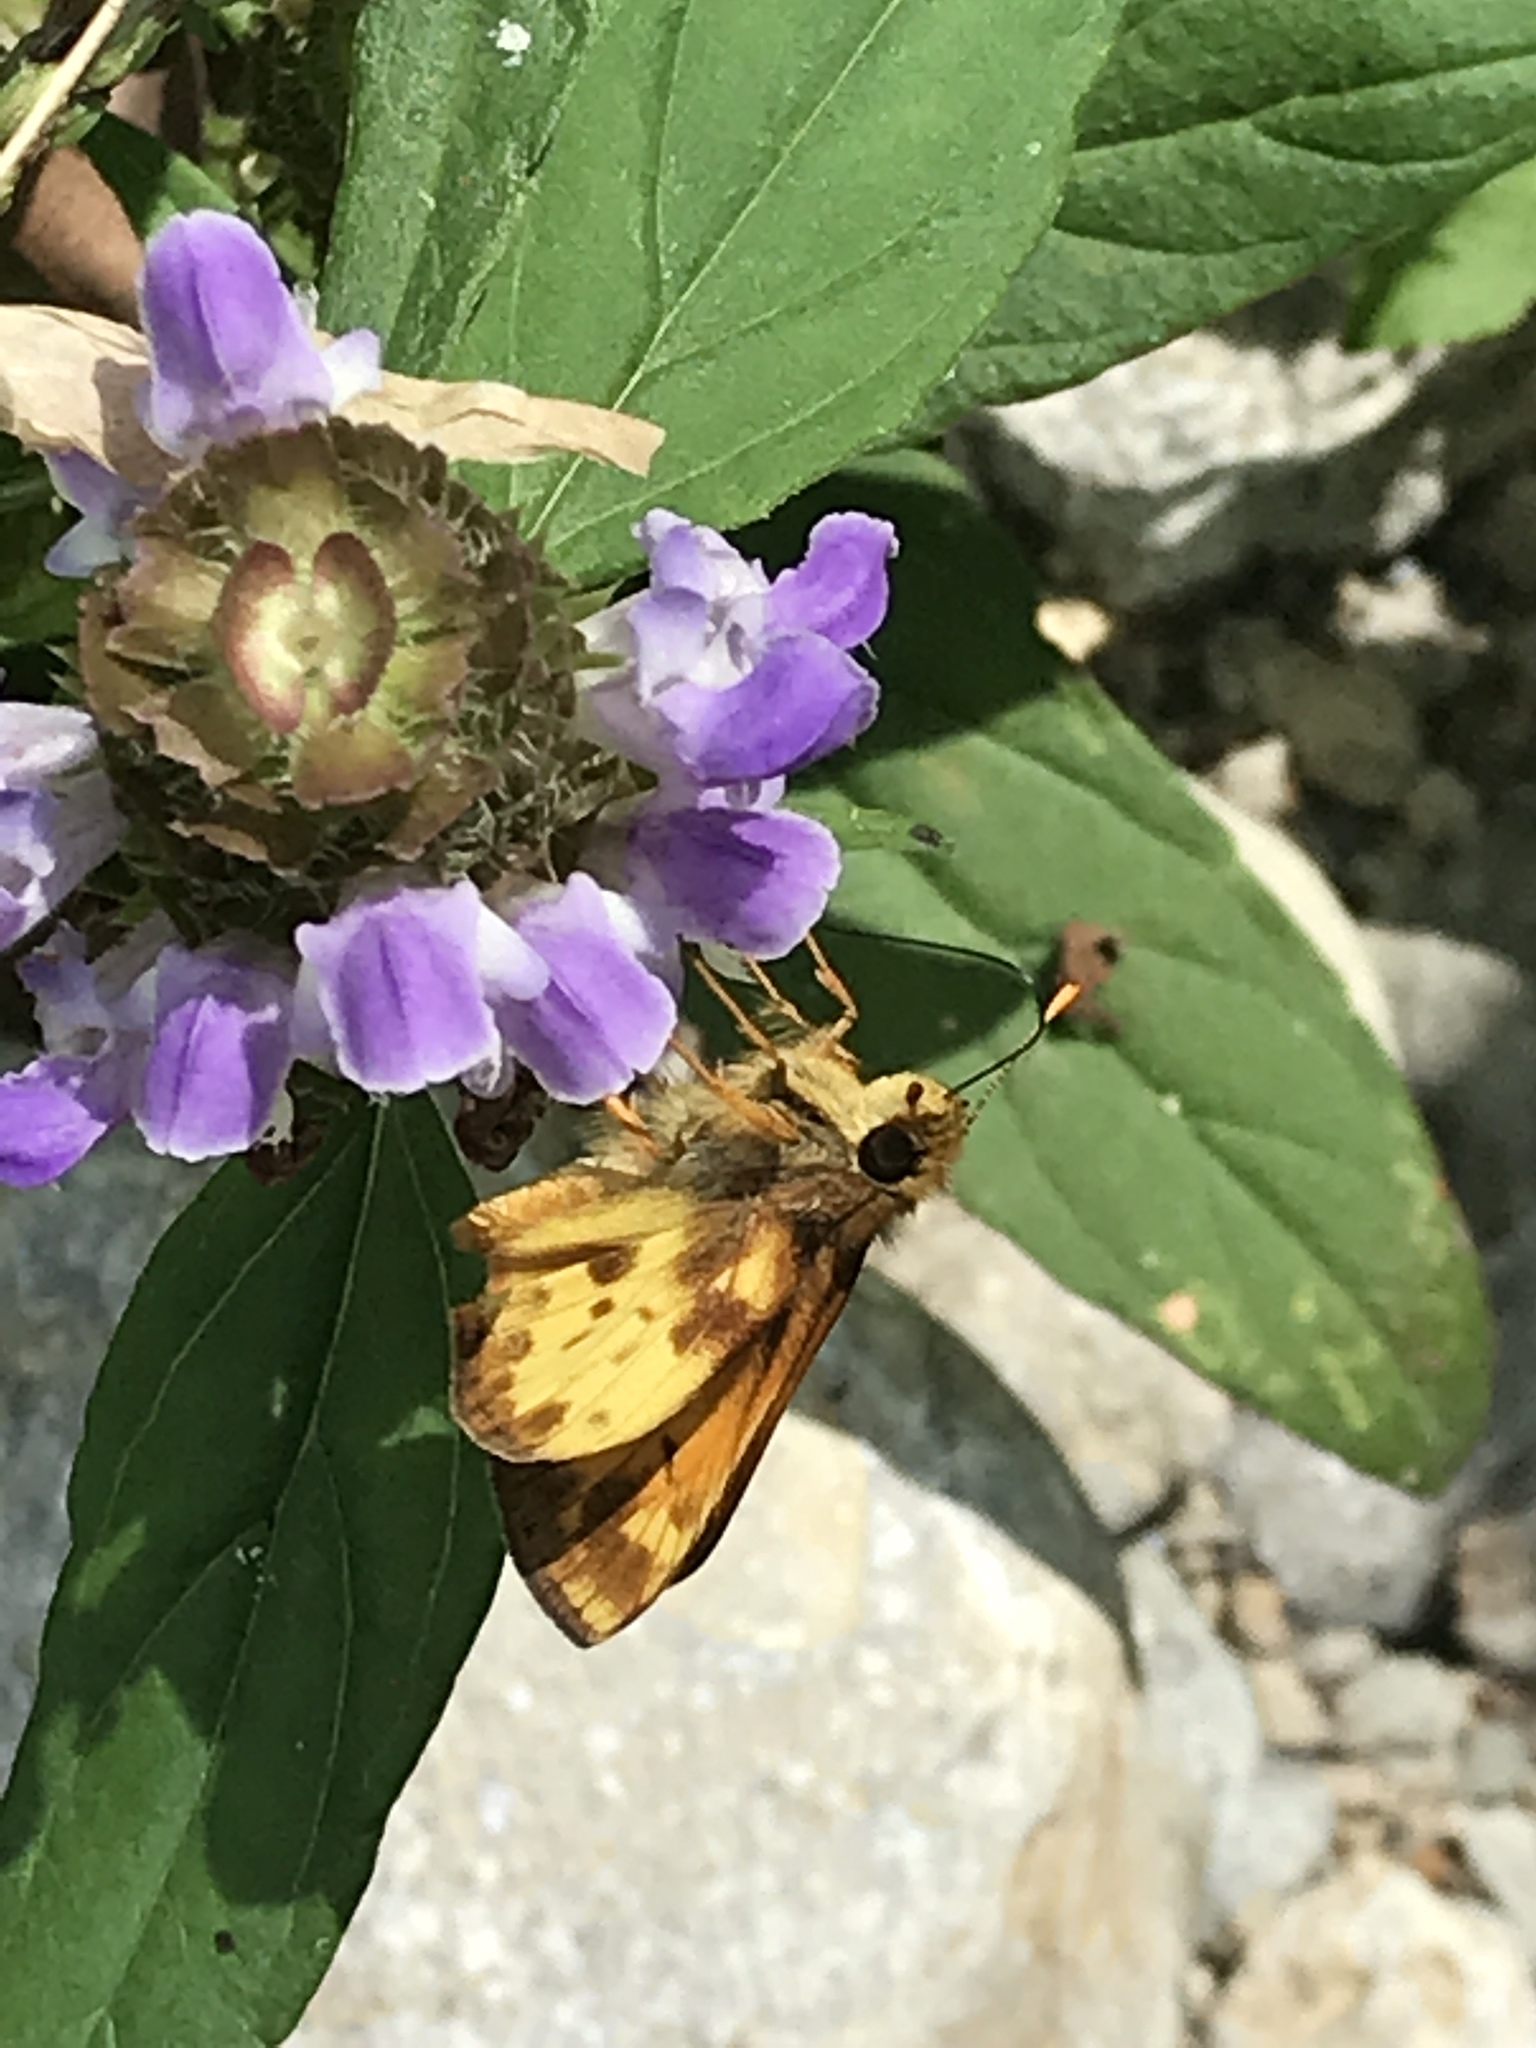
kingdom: Plantae
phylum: Tracheophyta
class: Magnoliopsida
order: Lamiales
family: Lamiaceae
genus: Prunella
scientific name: Prunella vulgaris
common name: Heal-all
